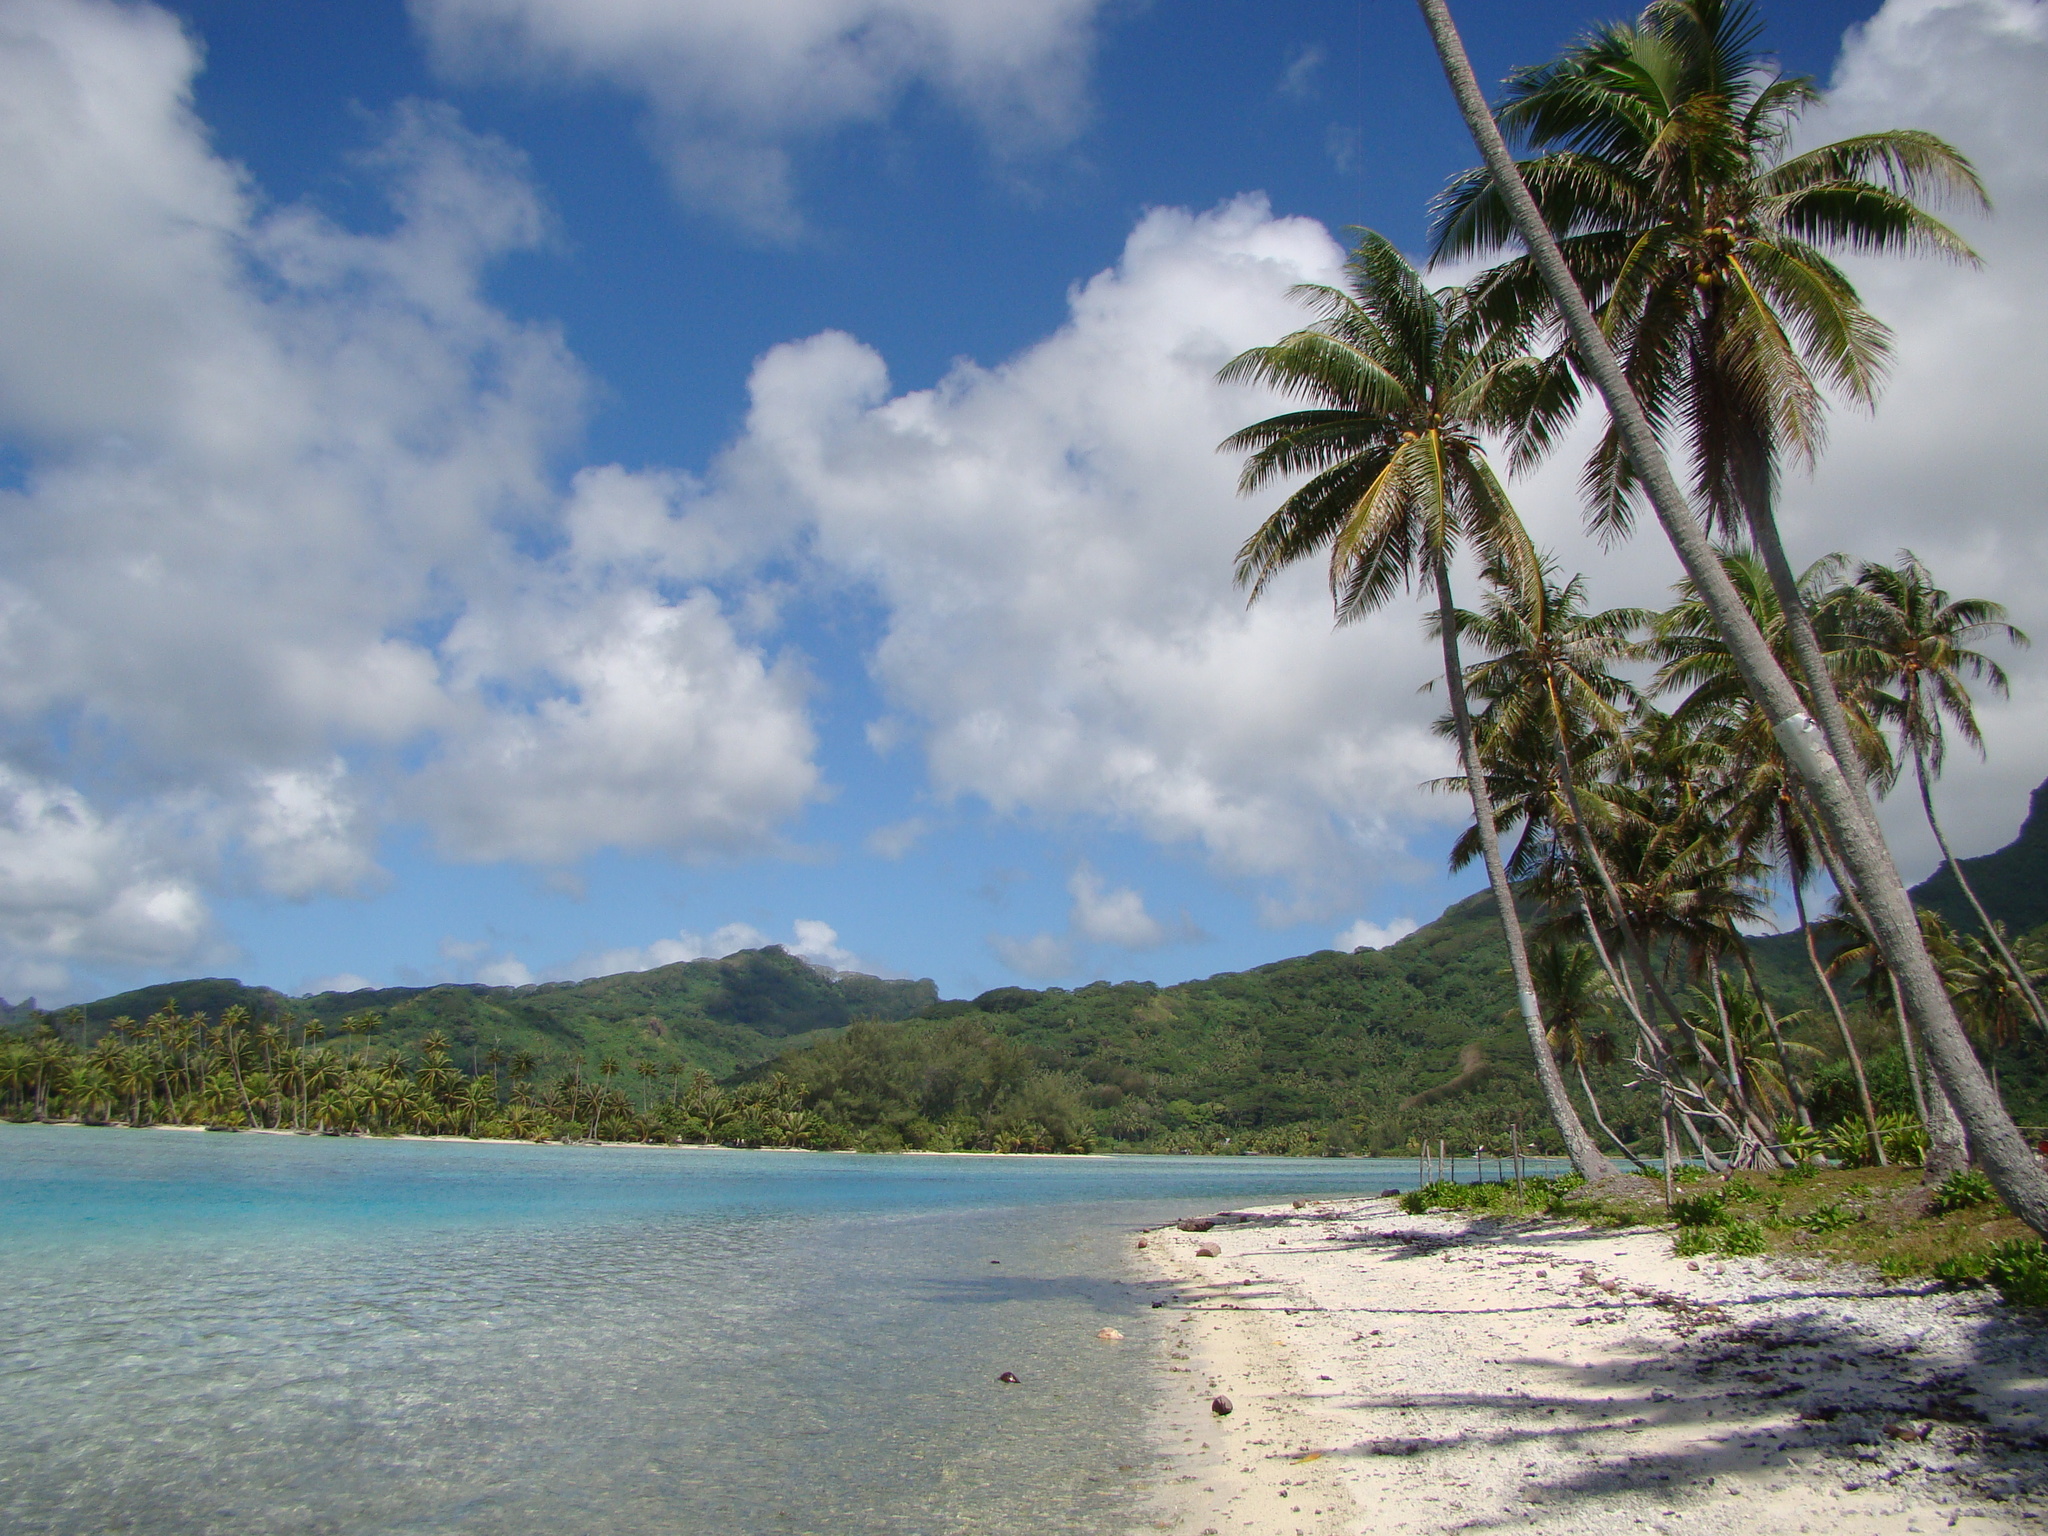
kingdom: Plantae
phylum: Tracheophyta
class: Liliopsida
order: Arecales
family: Arecaceae
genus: Cocos
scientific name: Cocos nucifera
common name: Coconut palm
